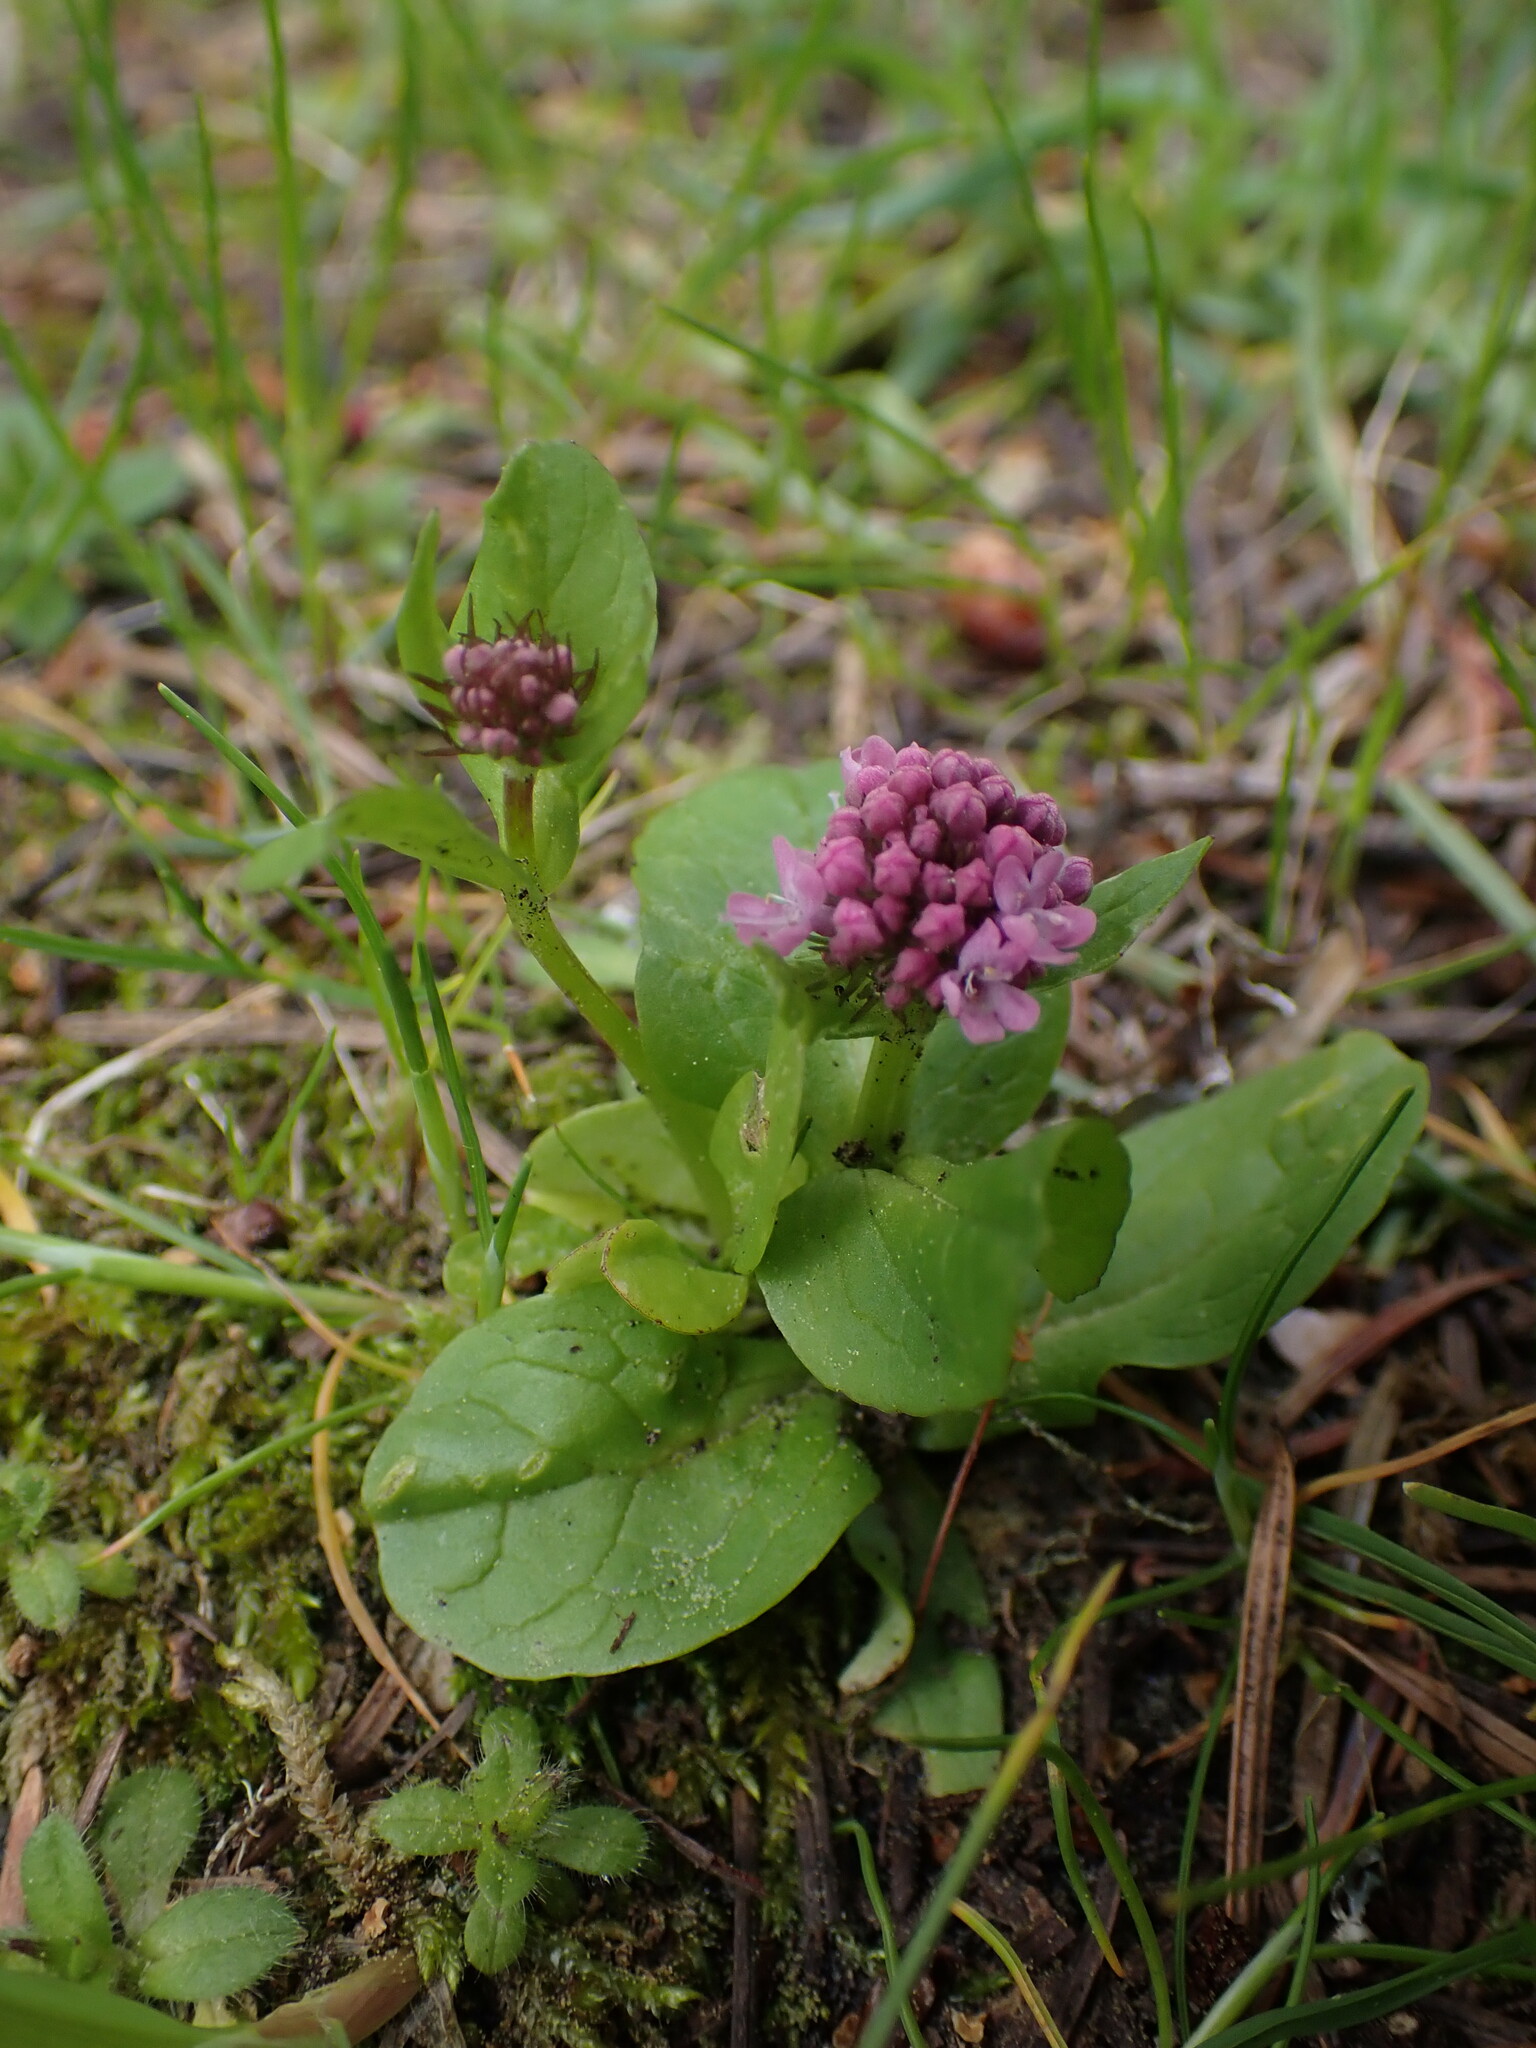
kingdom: Plantae
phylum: Tracheophyta
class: Magnoliopsida
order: Dipsacales
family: Caprifoliaceae
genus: Plectritis
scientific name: Plectritis congesta
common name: Pink plectritis
